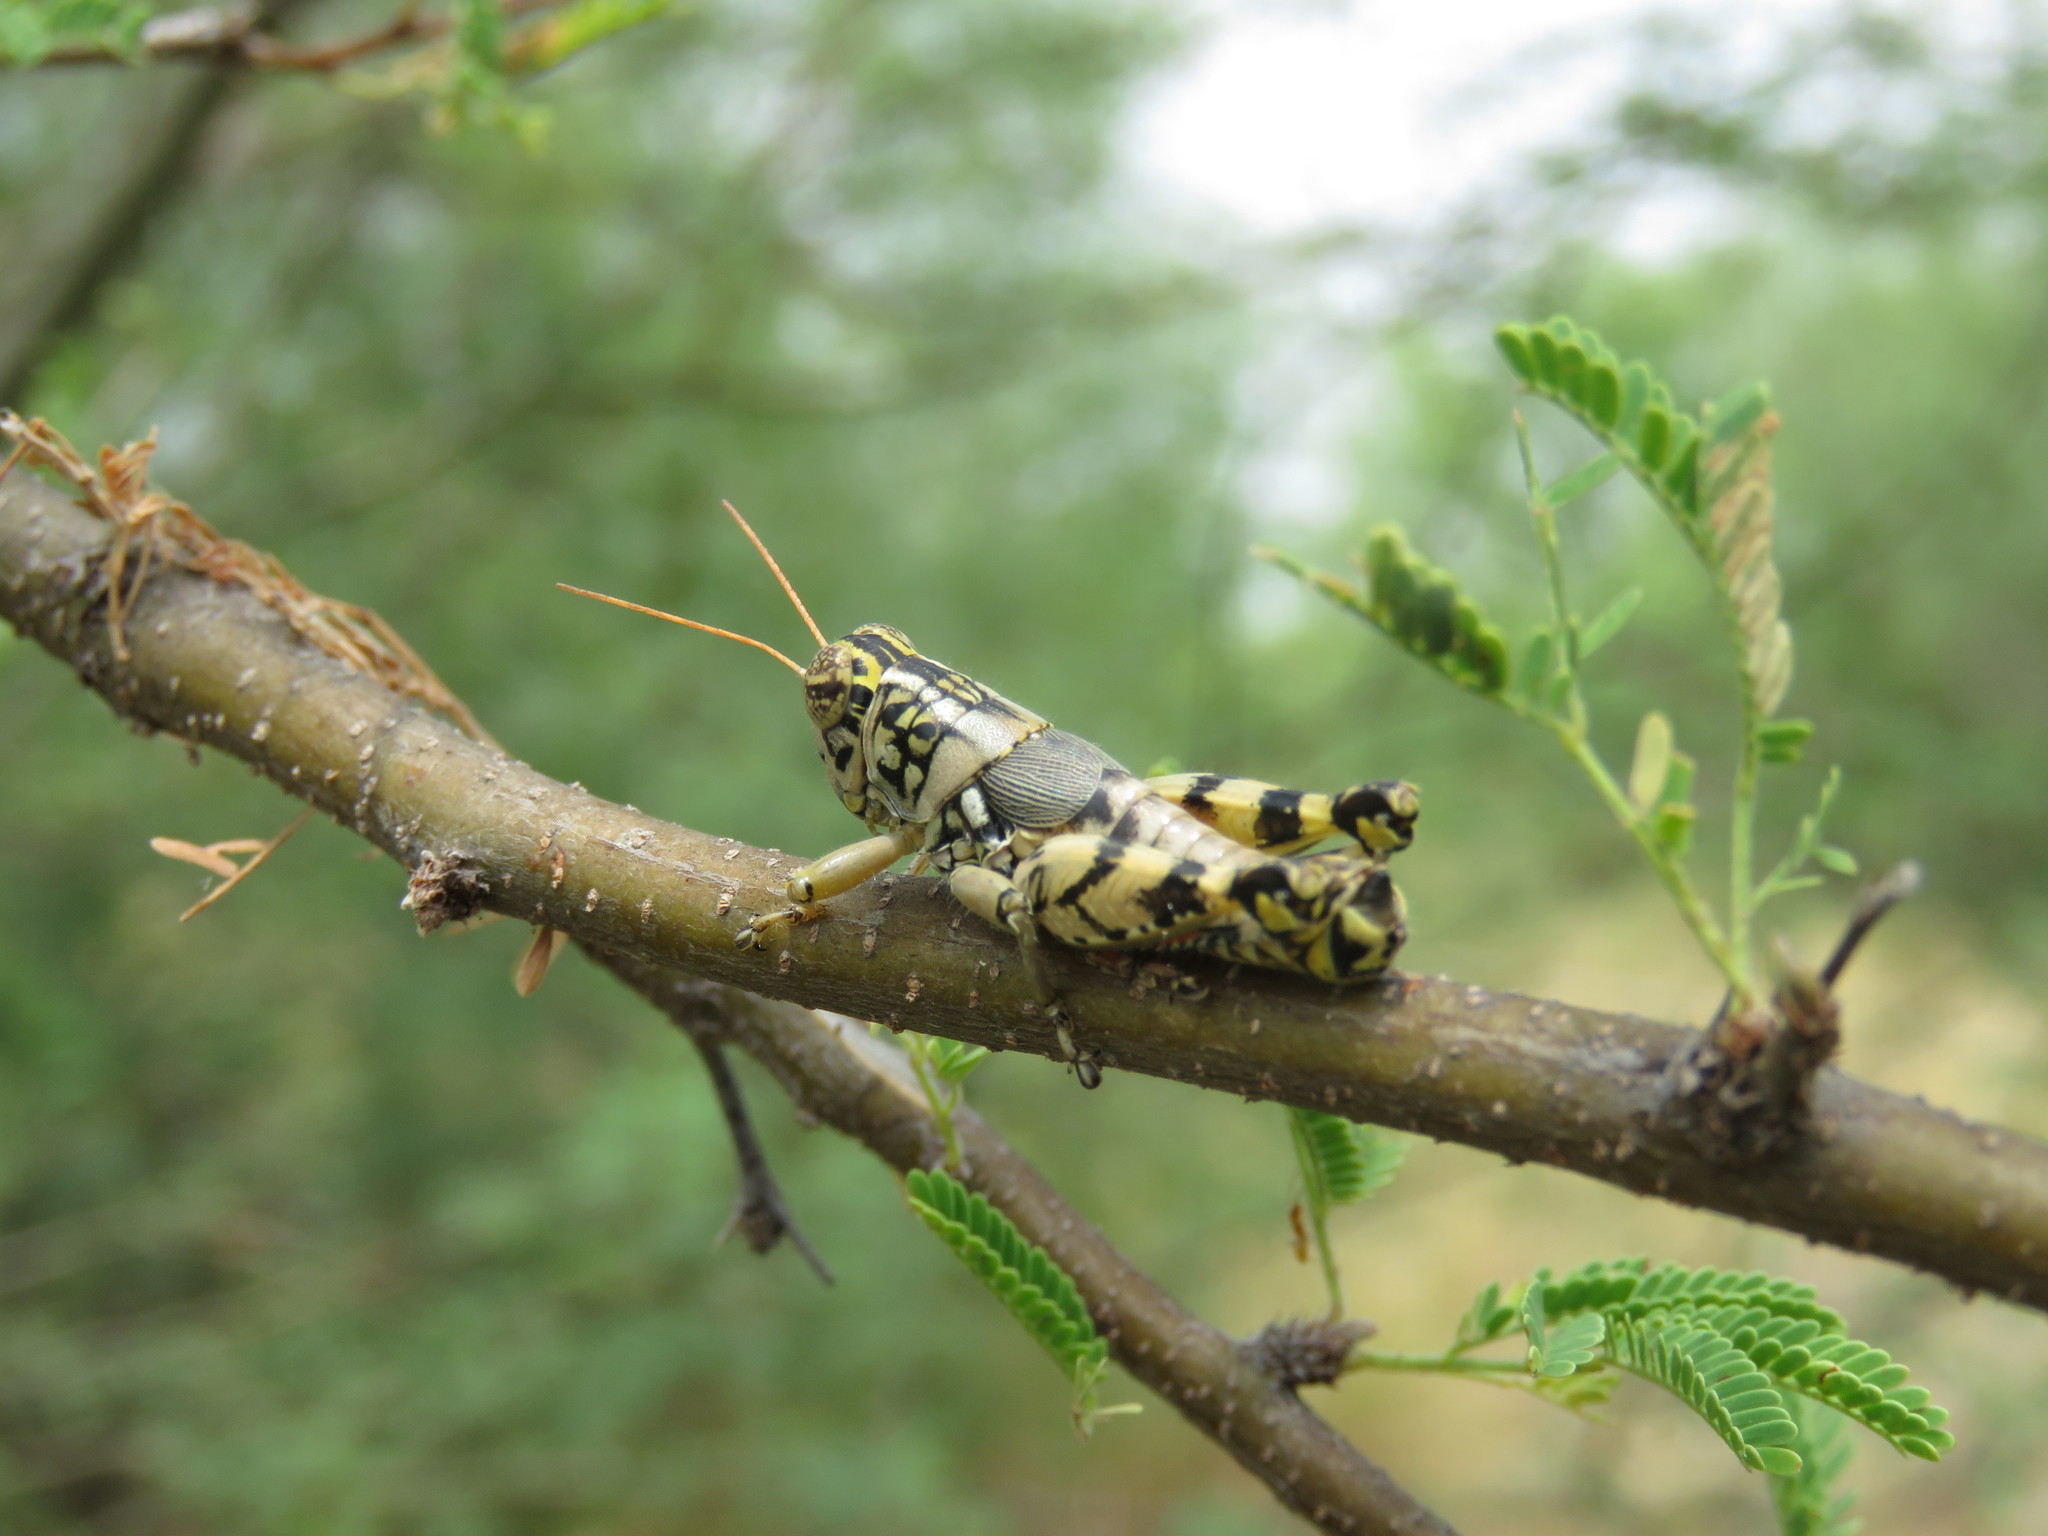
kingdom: Animalia
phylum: Arthropoda
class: Insecta
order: Orthoptera
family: Acrididae
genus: Agroecotettix
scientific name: Agroecotettix modestus
